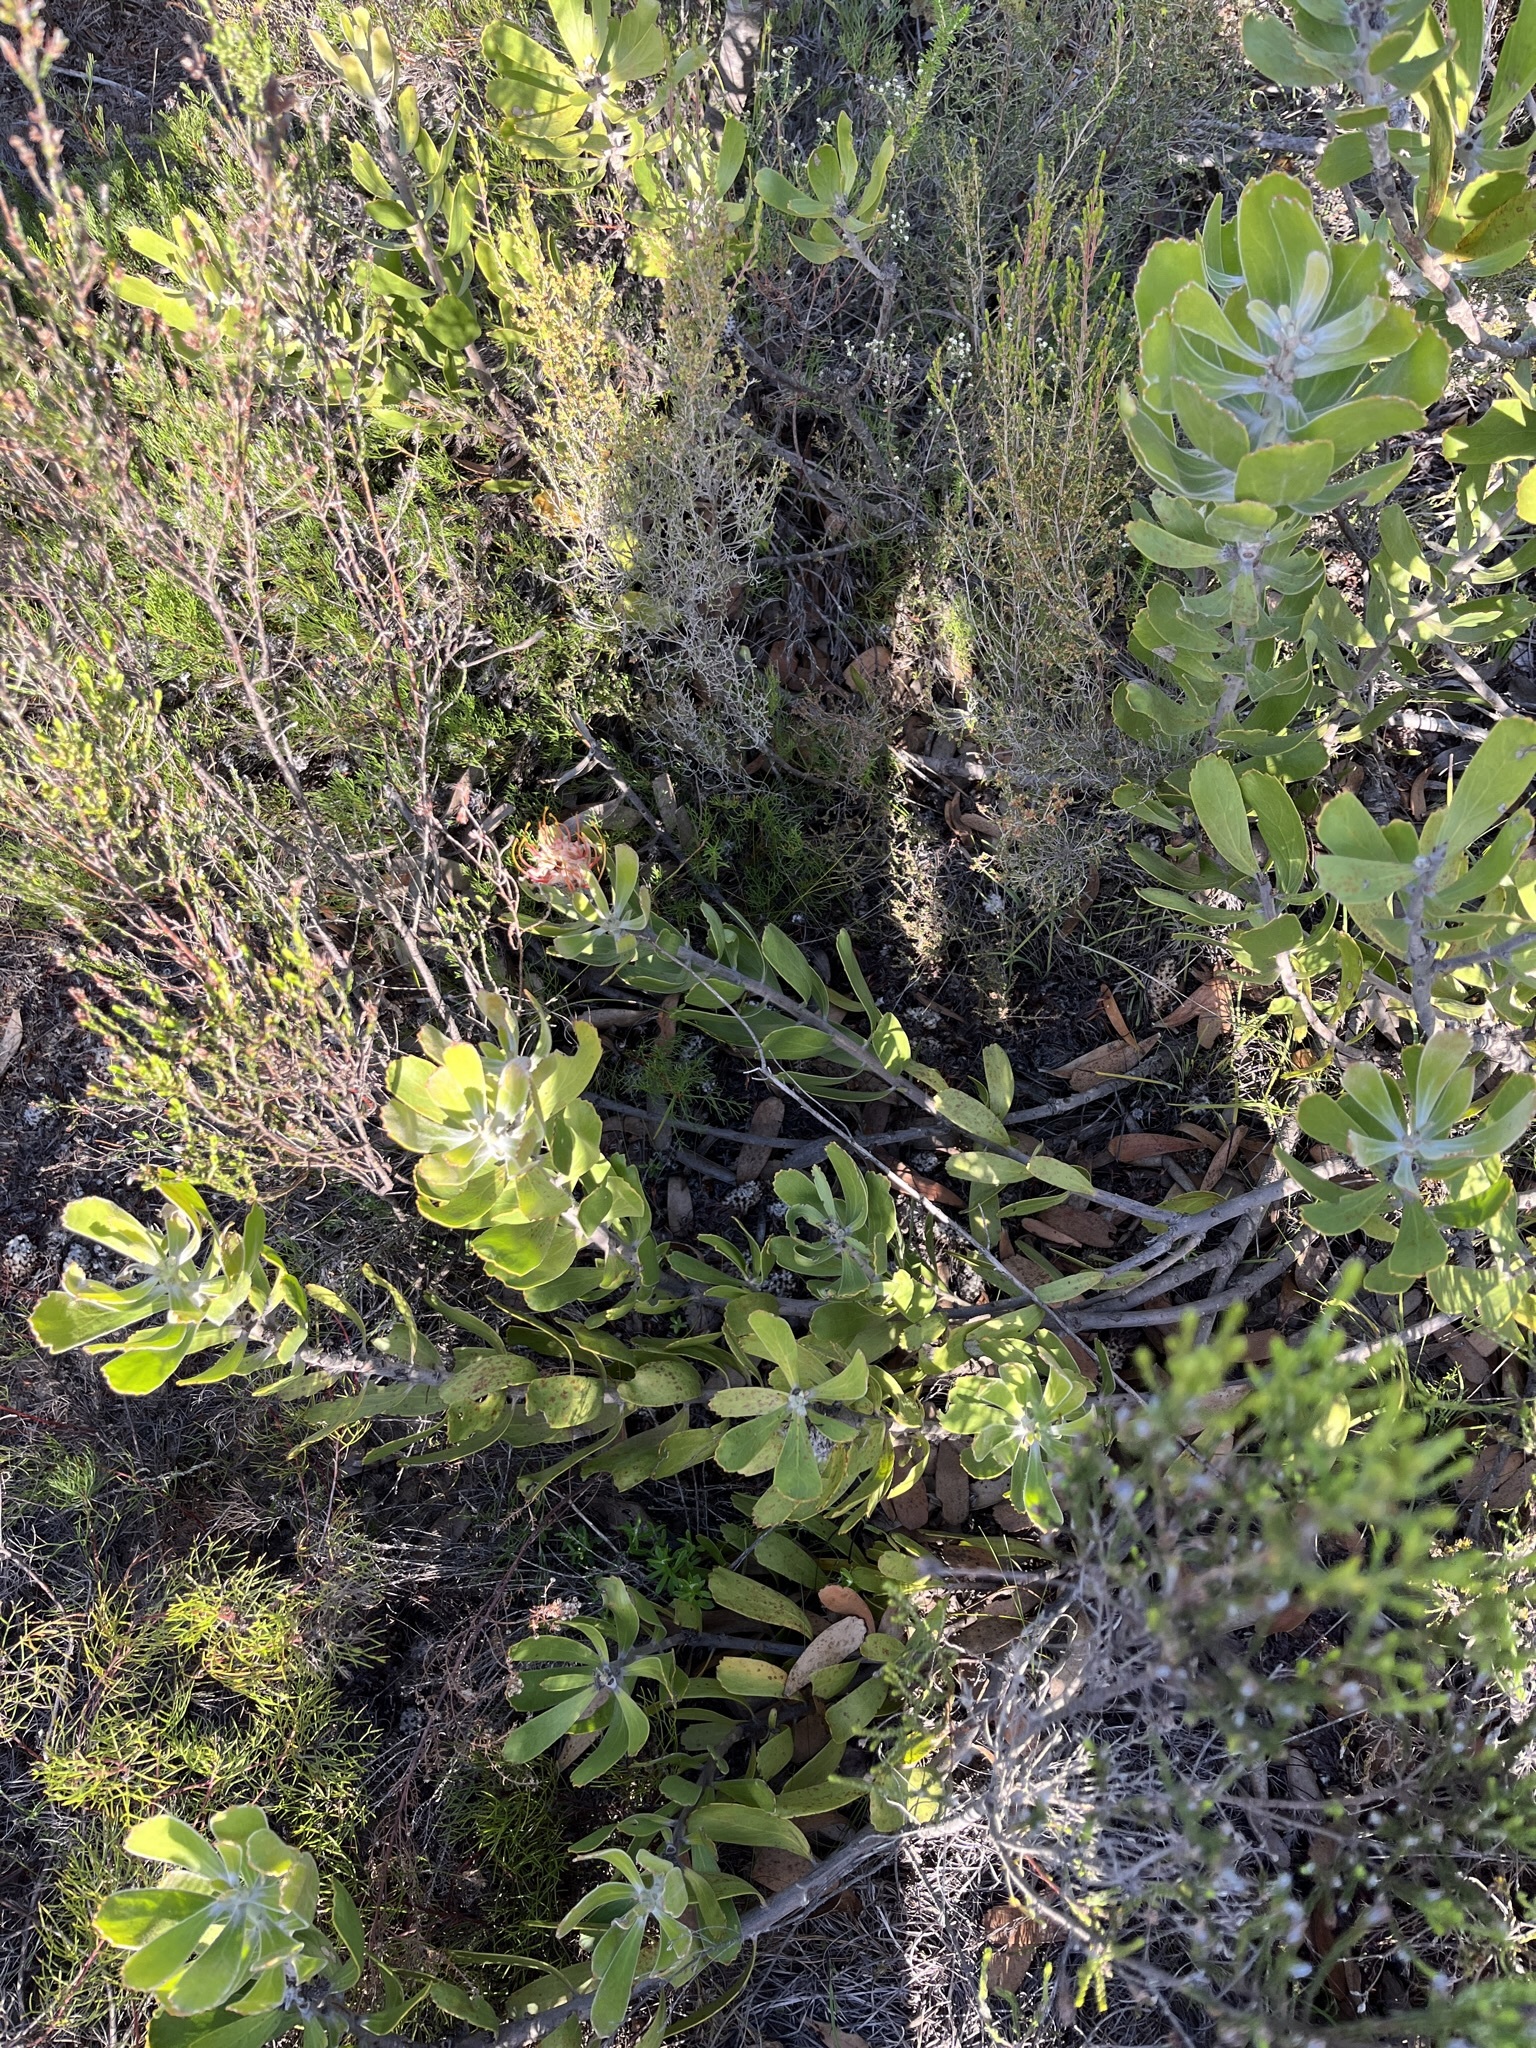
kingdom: Plantae
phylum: Tracheophyta
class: Magnoliopsida
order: Proteales
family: Proteaceae
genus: Leucospermum
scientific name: Leucospermum cuneiforme
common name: Common pincushion
